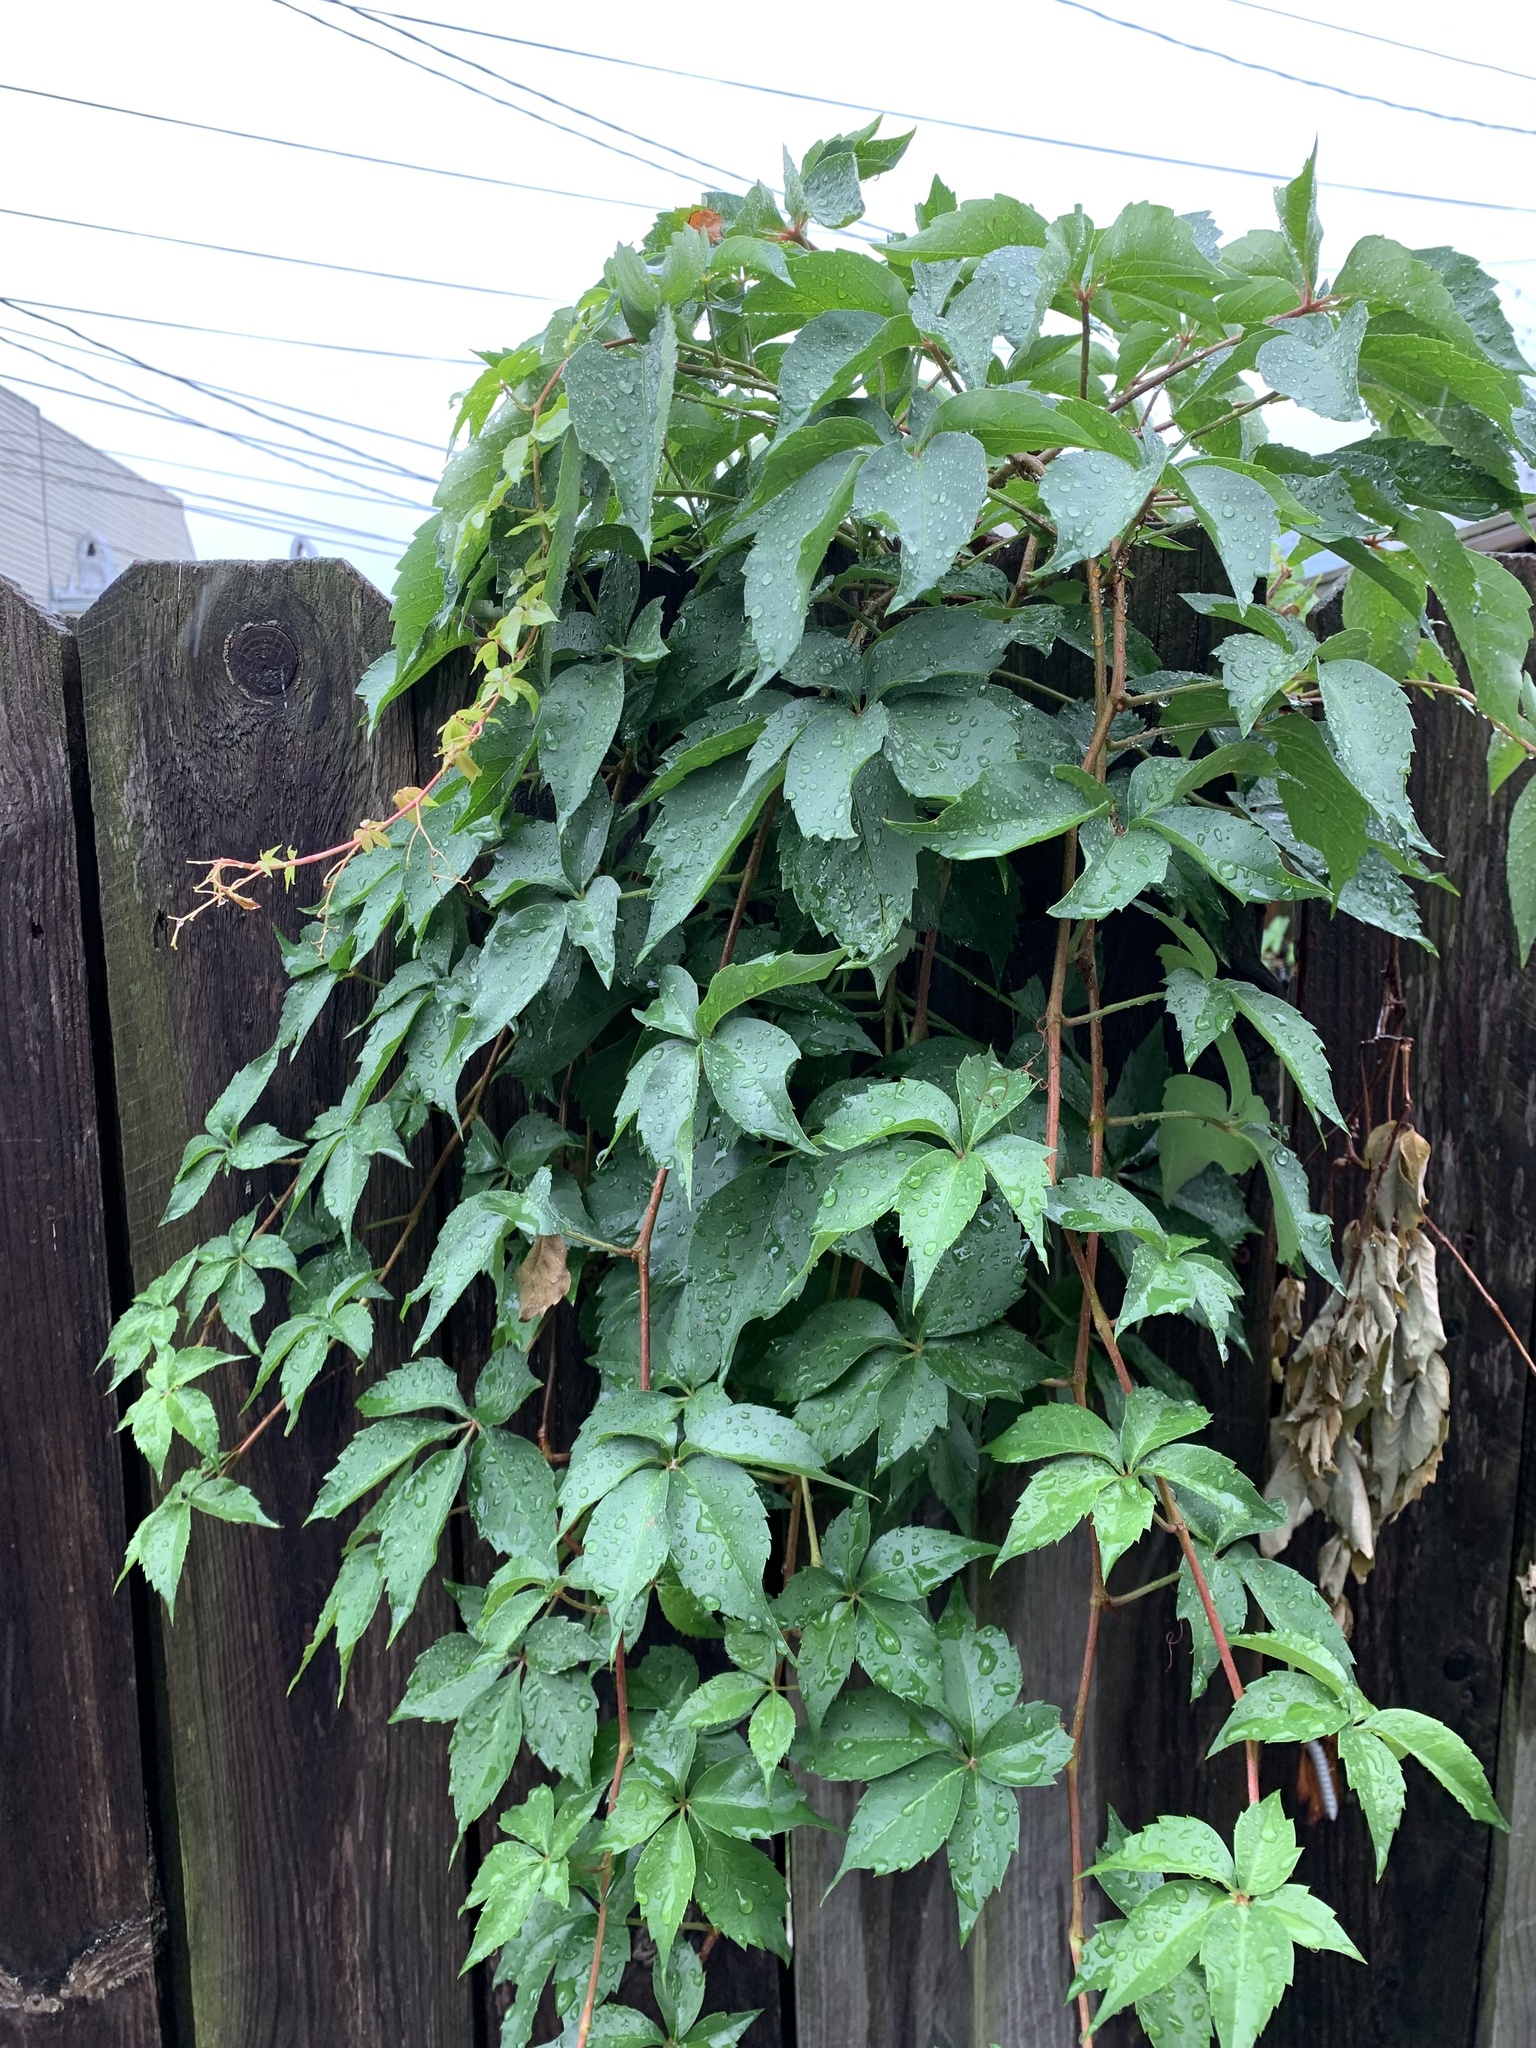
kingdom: Plantae
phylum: Tracheophyta
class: Magnoliopsida
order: Vitales
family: Vitaceae
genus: Parthenocissus
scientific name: Parthenocissus quinquefolia
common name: Virginia-creeper
